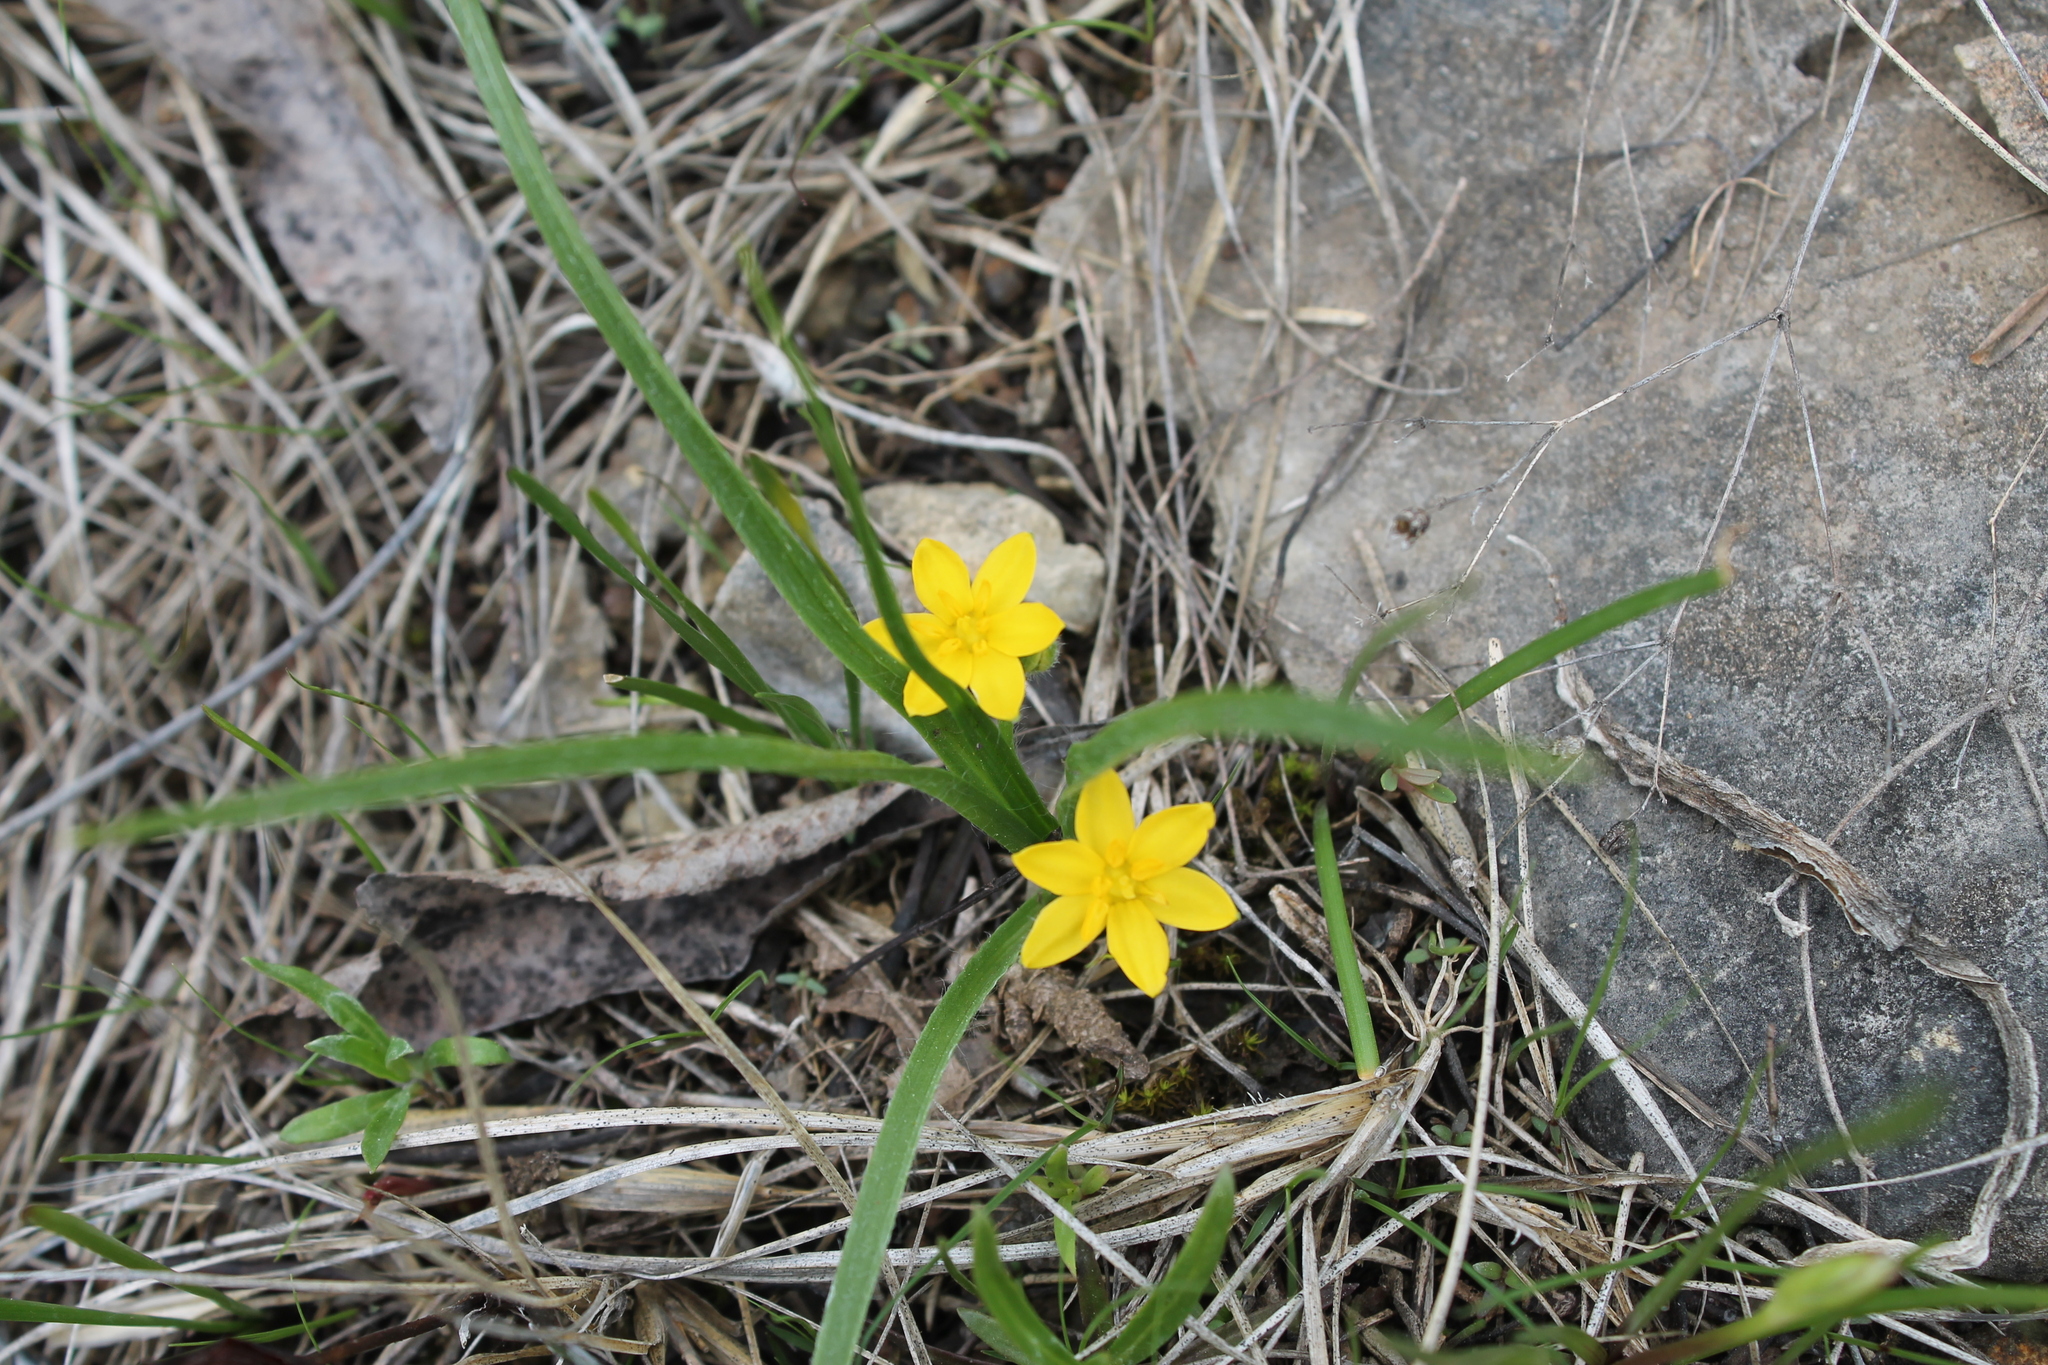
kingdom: Plantae
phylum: Tracheophyta
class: Liliopsida
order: Asparagales
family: Hypoxidaceae
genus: Hypoxis
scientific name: Hypoxis hirsuta
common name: Common goldstar
